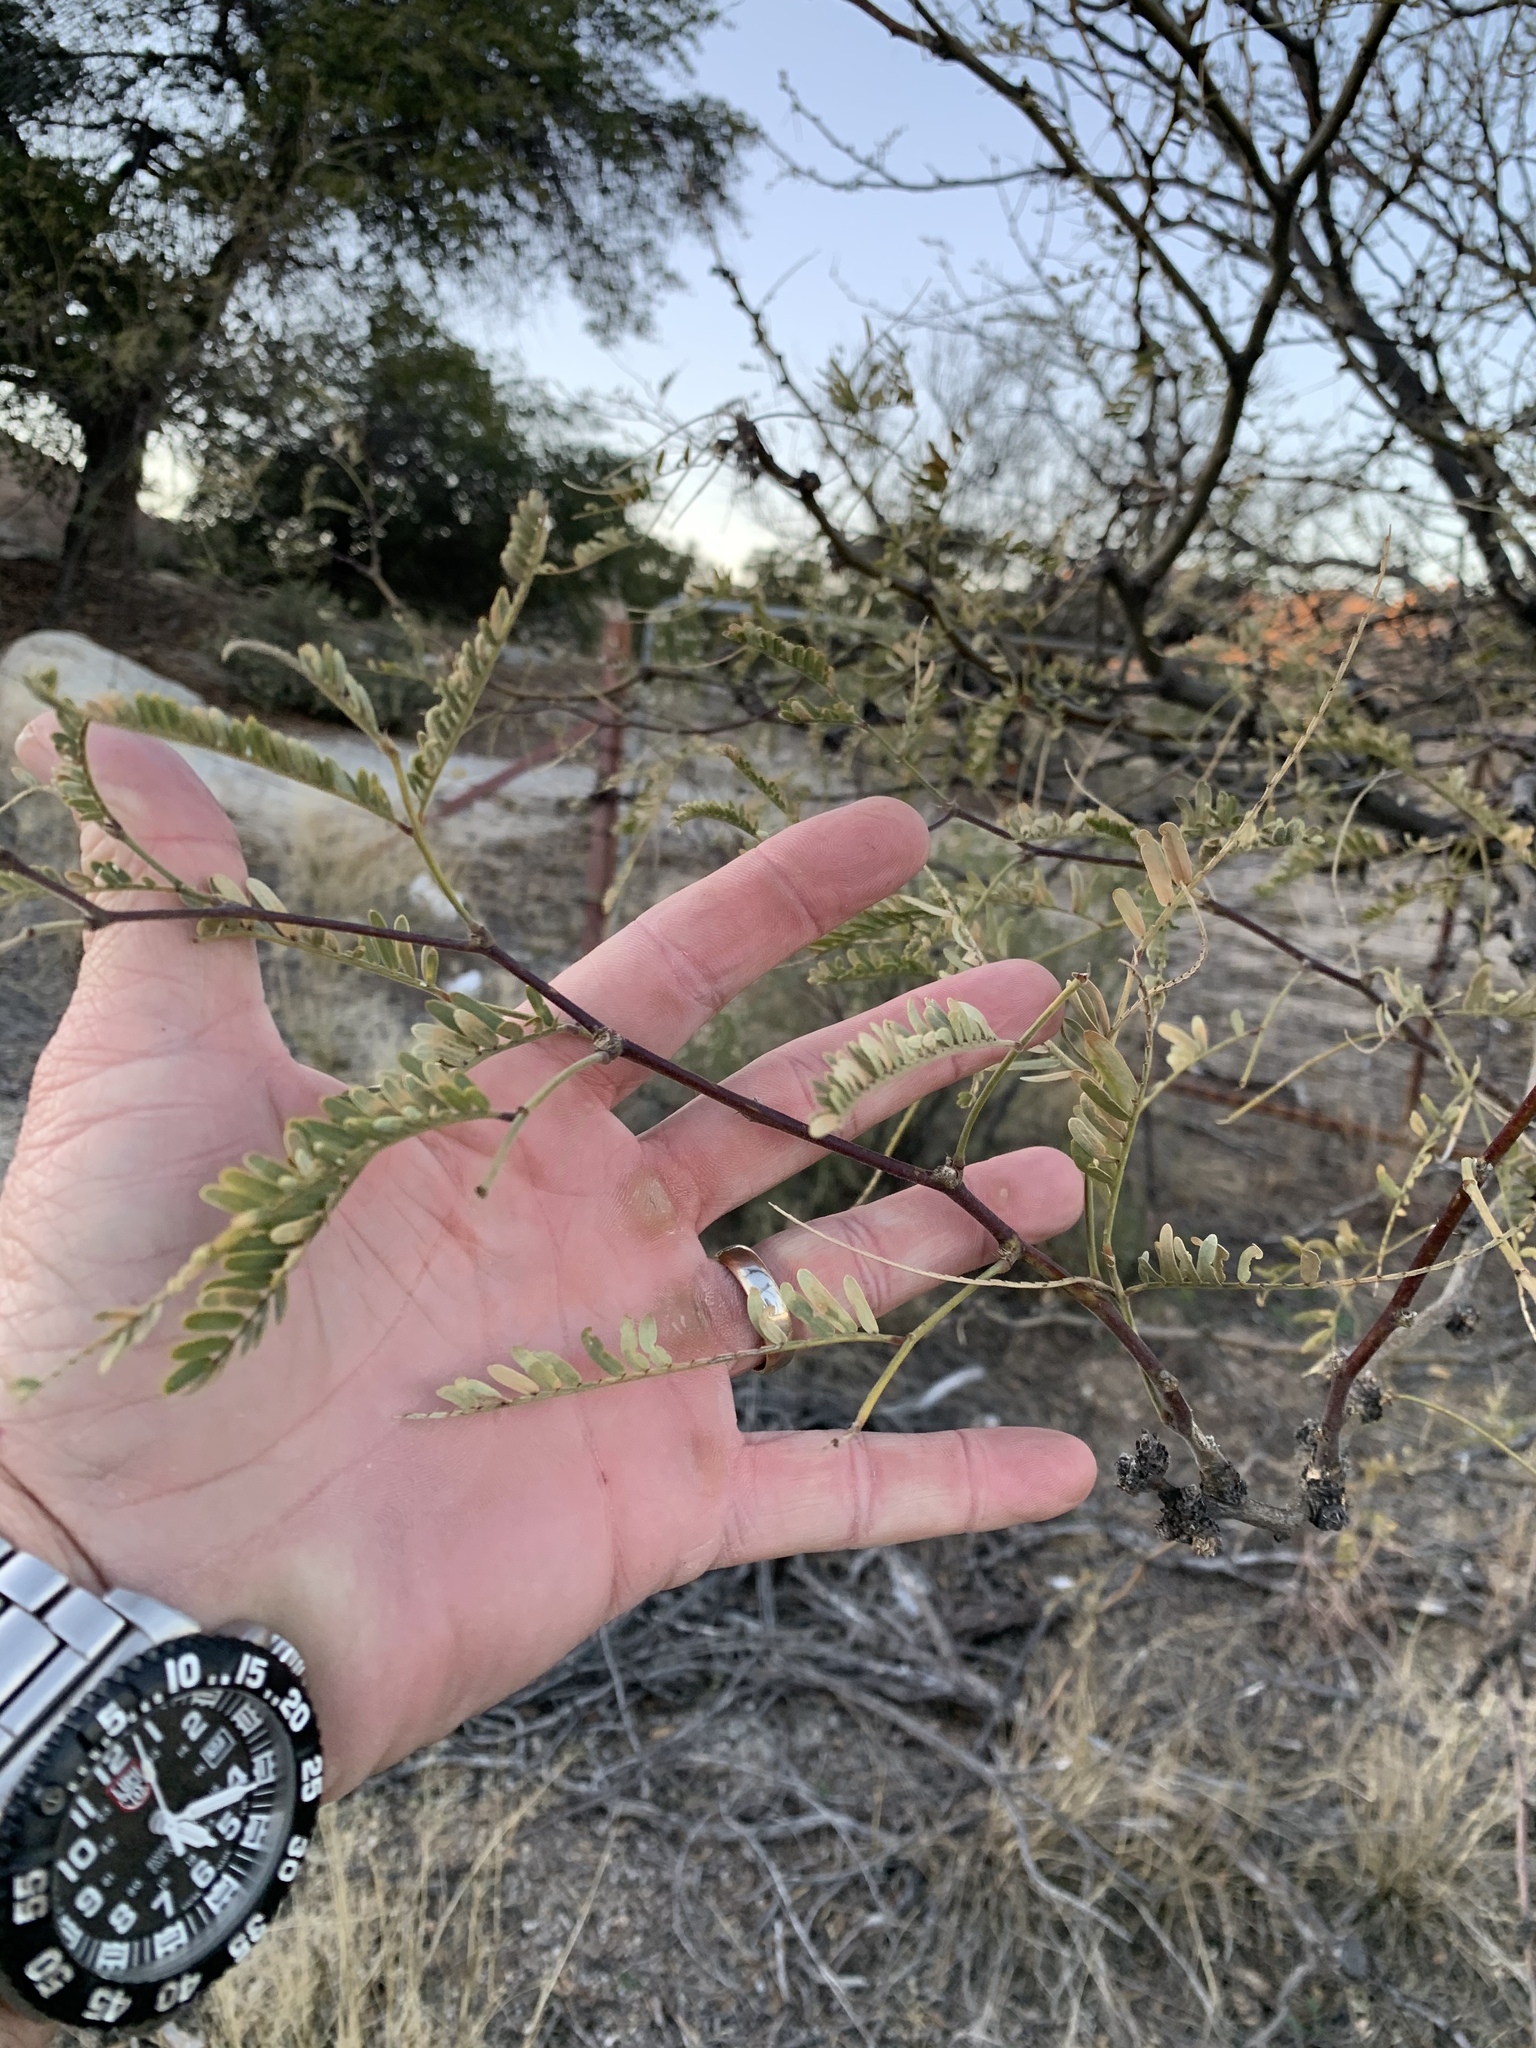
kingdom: Plantae
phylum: Tracheophyta
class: Magnoliopsida
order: Fabales
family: Fabaceae
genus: Prosopis
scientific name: Prosopis velutina
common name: Velvet mesquite
